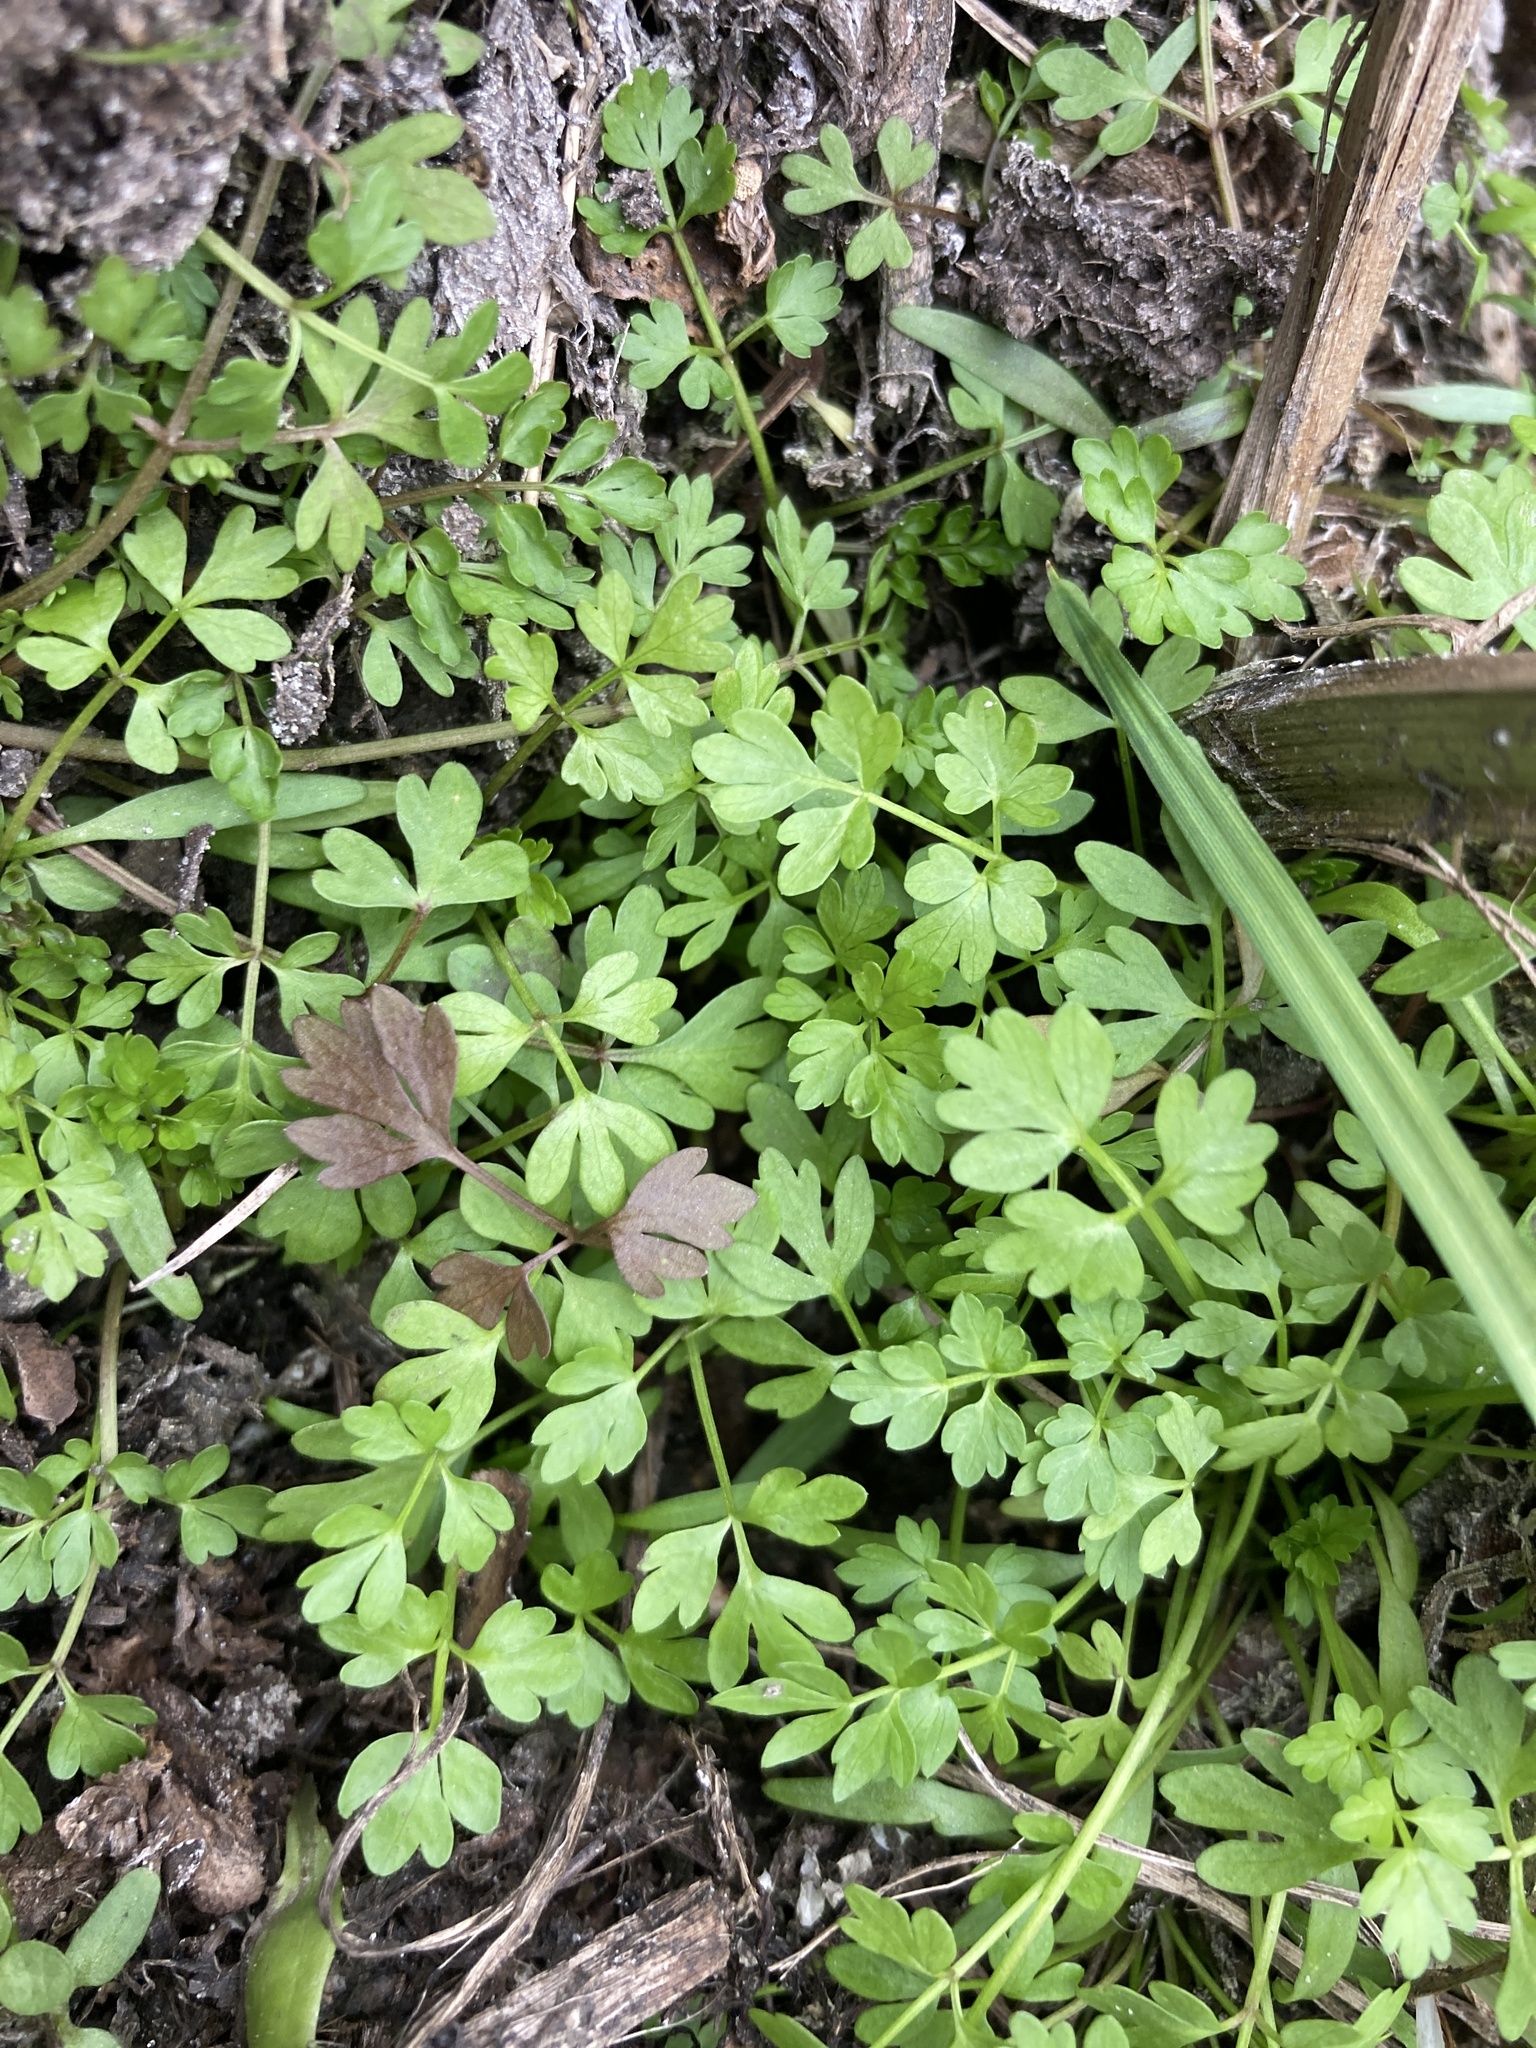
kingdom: Plantae
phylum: Tracheophyta
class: Magnoliopsida
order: Apiales
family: Apiaceae
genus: Oenanthe
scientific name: Oenanthe aquatica
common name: Fine-leaved water-dropwort
